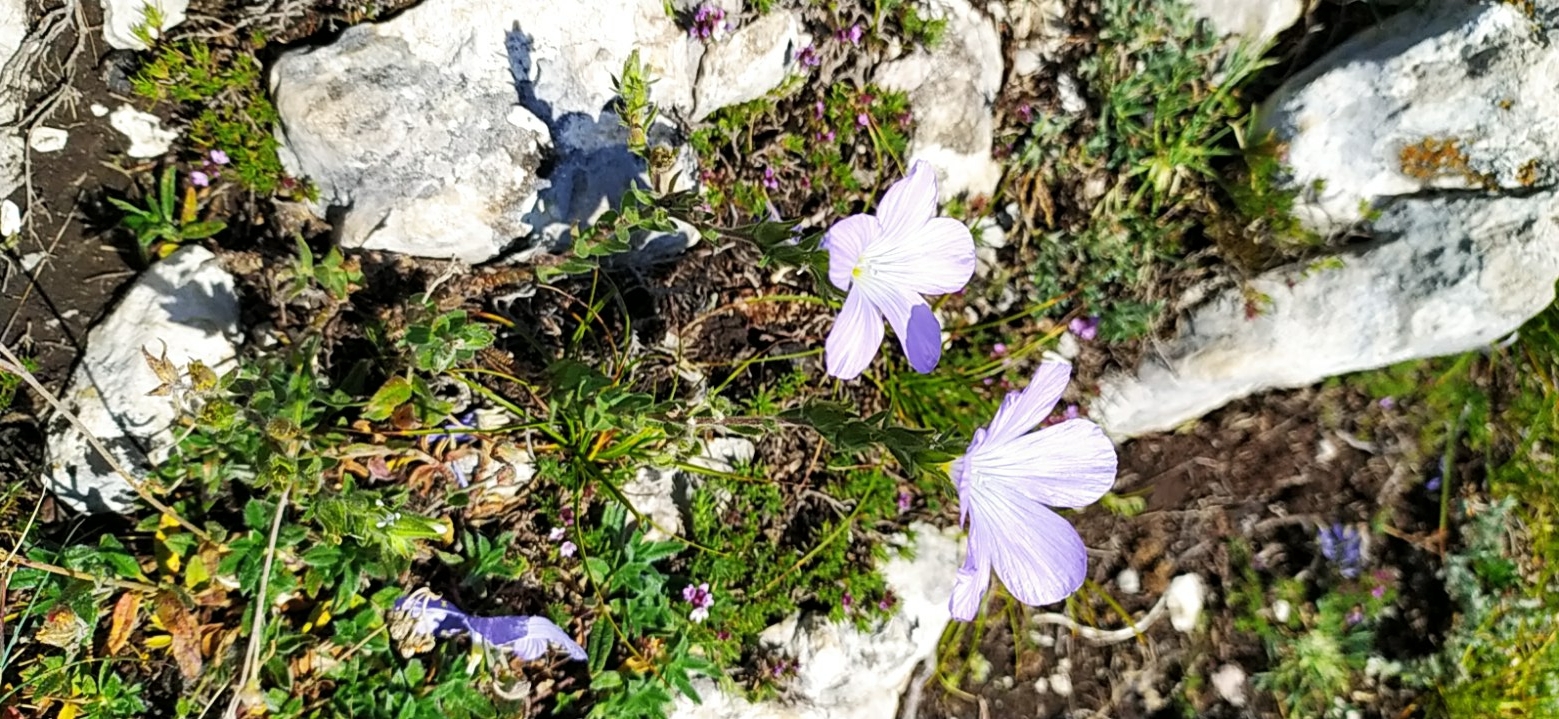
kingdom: Plantae
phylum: Tracheophyta
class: Magnoliopsida
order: Malpighiales
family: Linaceae
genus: Linum
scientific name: Linum hirsutum
